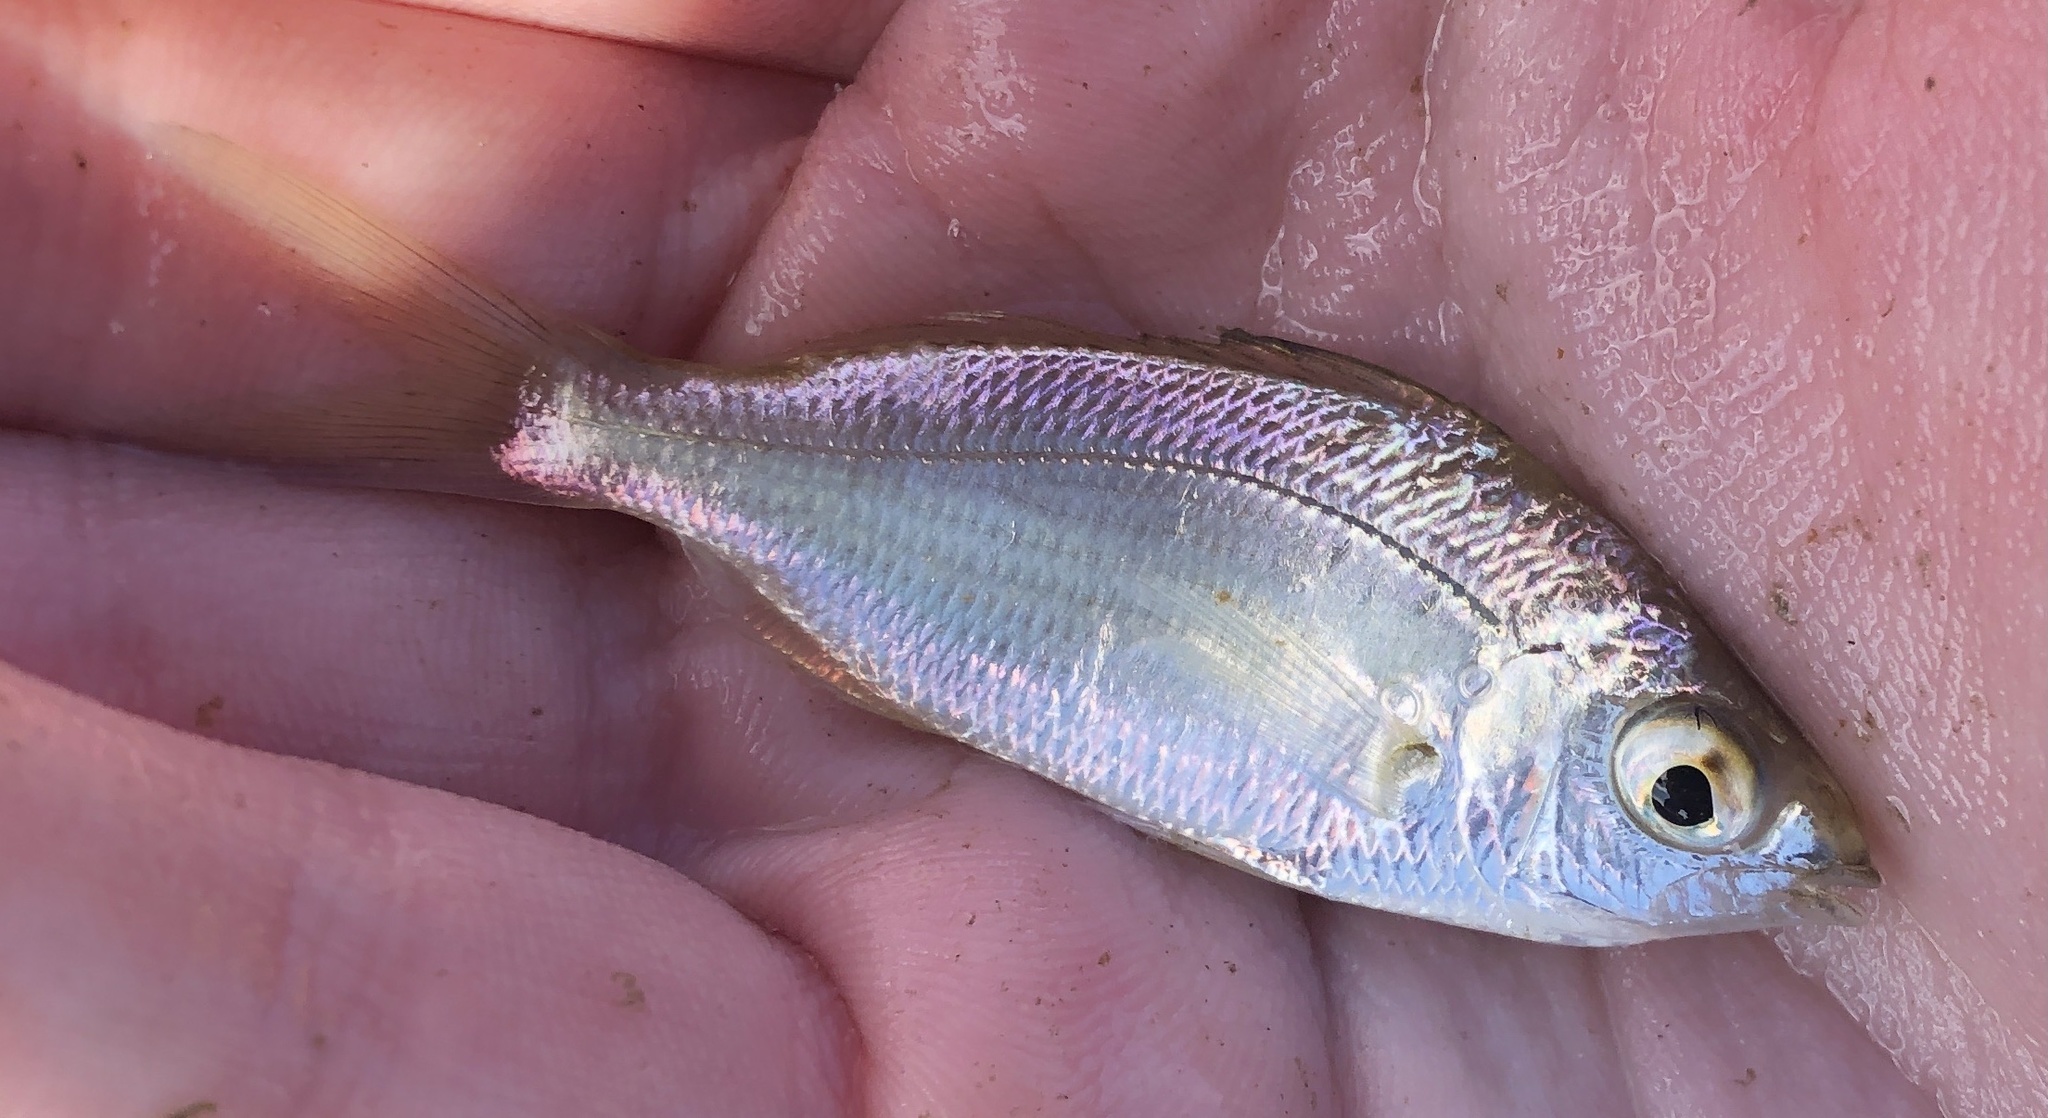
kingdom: Animalia
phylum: Chordata
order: Perciformes
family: Gerreidae
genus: Eucinostomus
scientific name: Eucinostomus harengulus
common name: Tidewater mojarra
